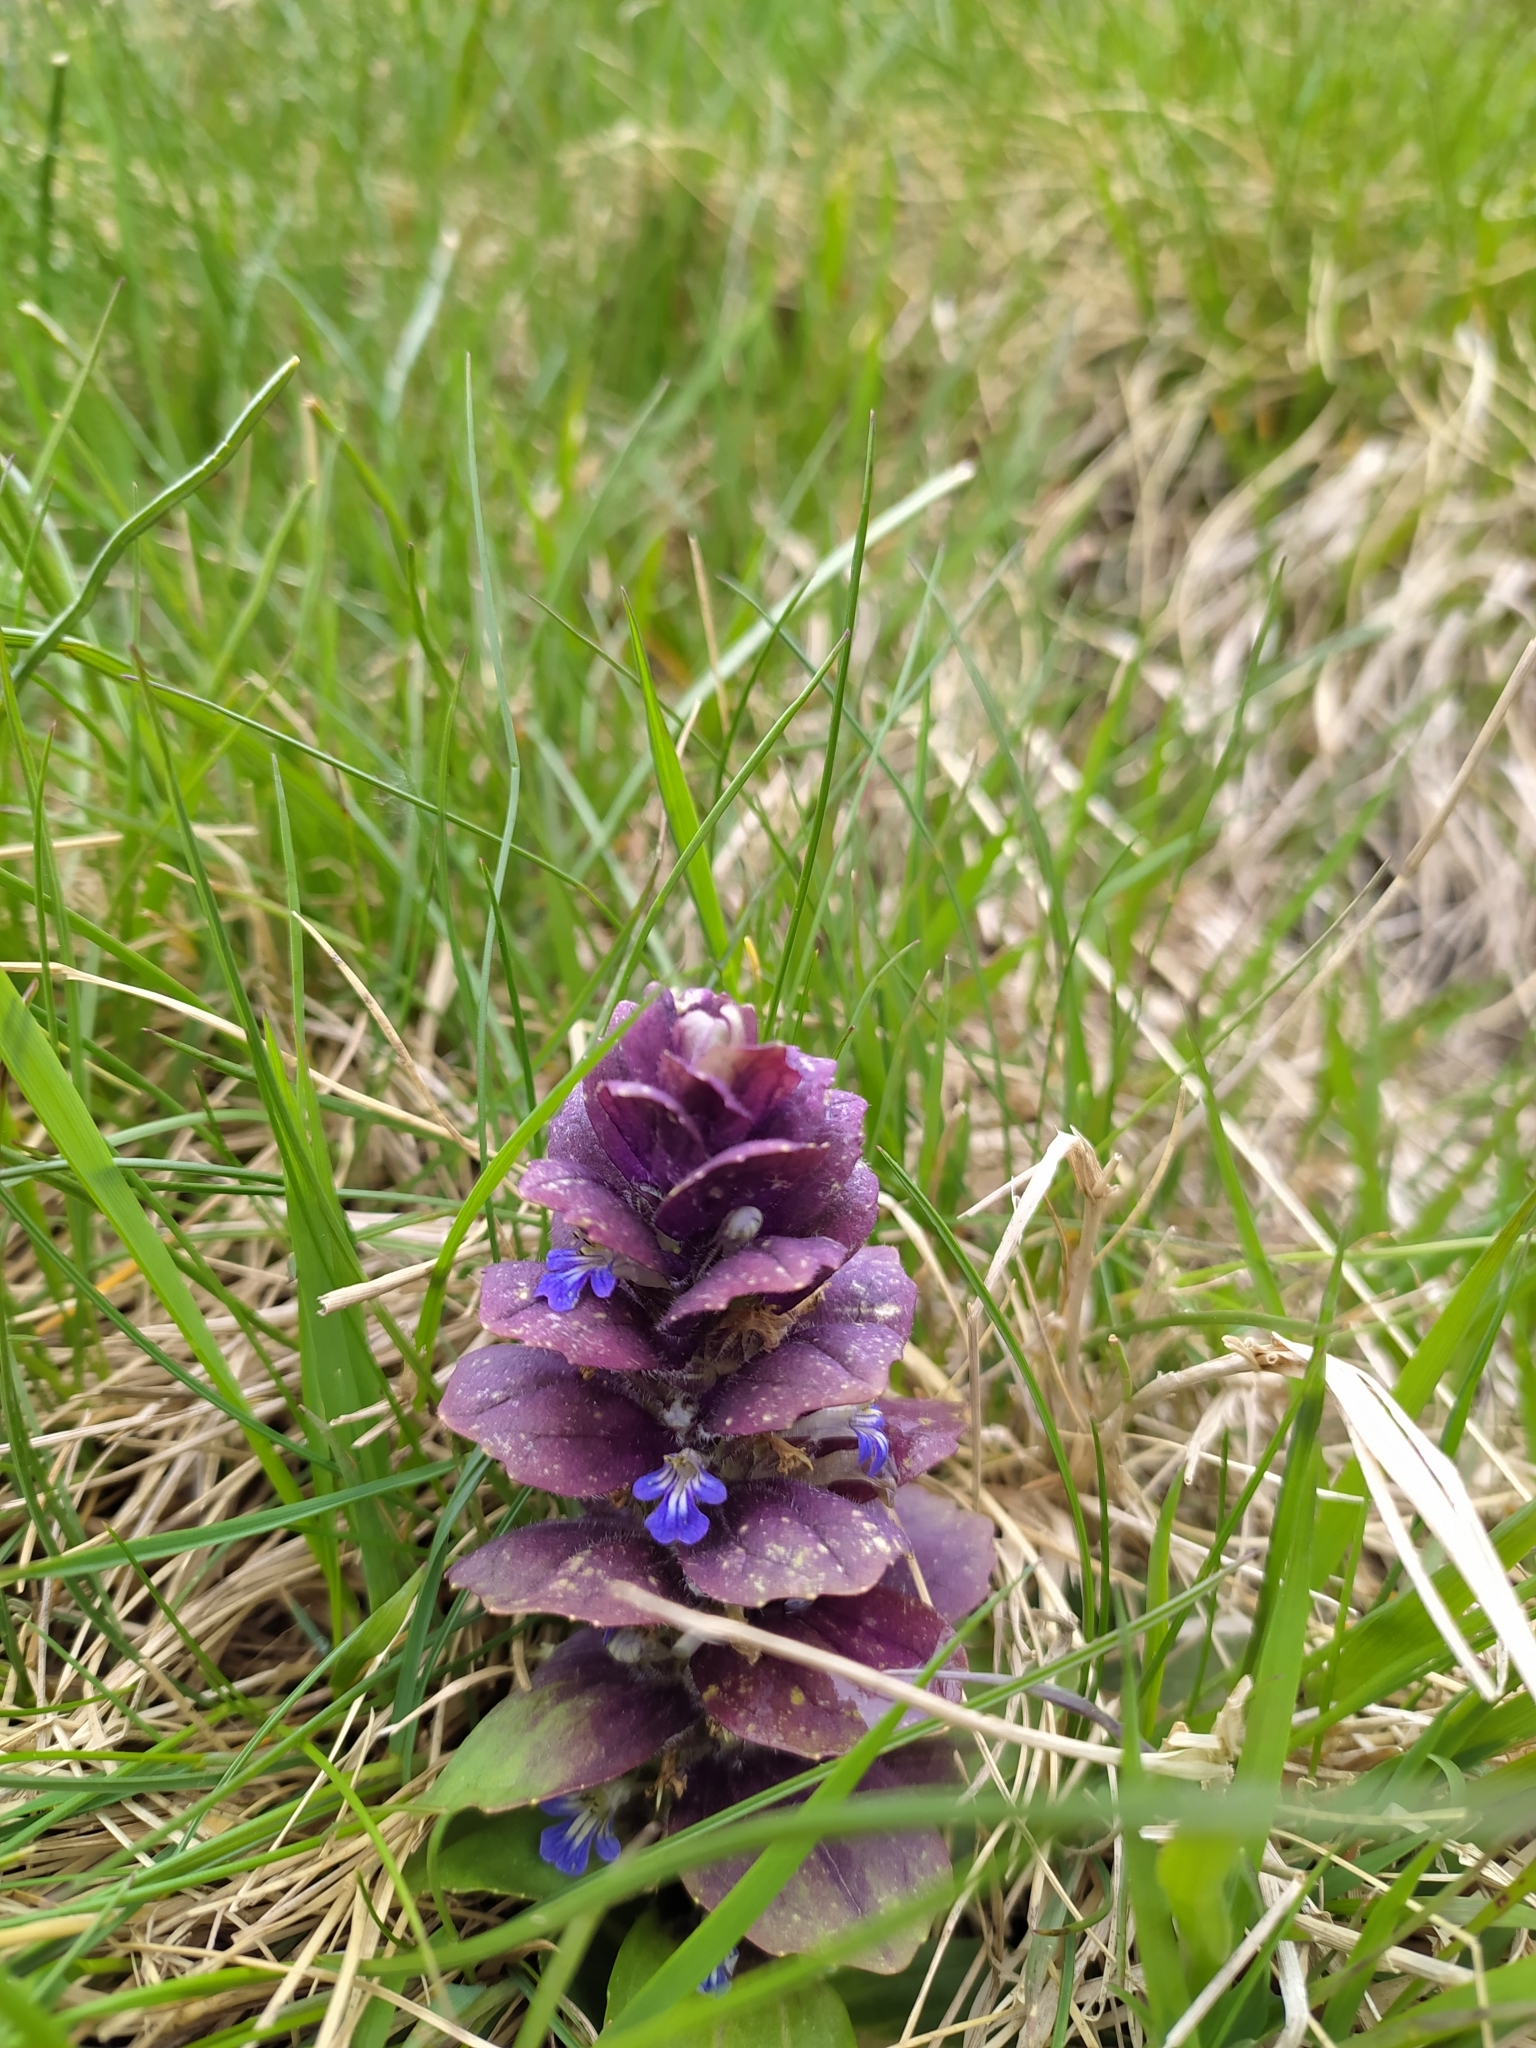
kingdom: Plantae
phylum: Tracheophyta
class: Magnoliopsida
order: Lamiales
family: Lamiaceae
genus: Ajuga
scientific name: Ajuga pyramidalis
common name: Pyramid bugle
